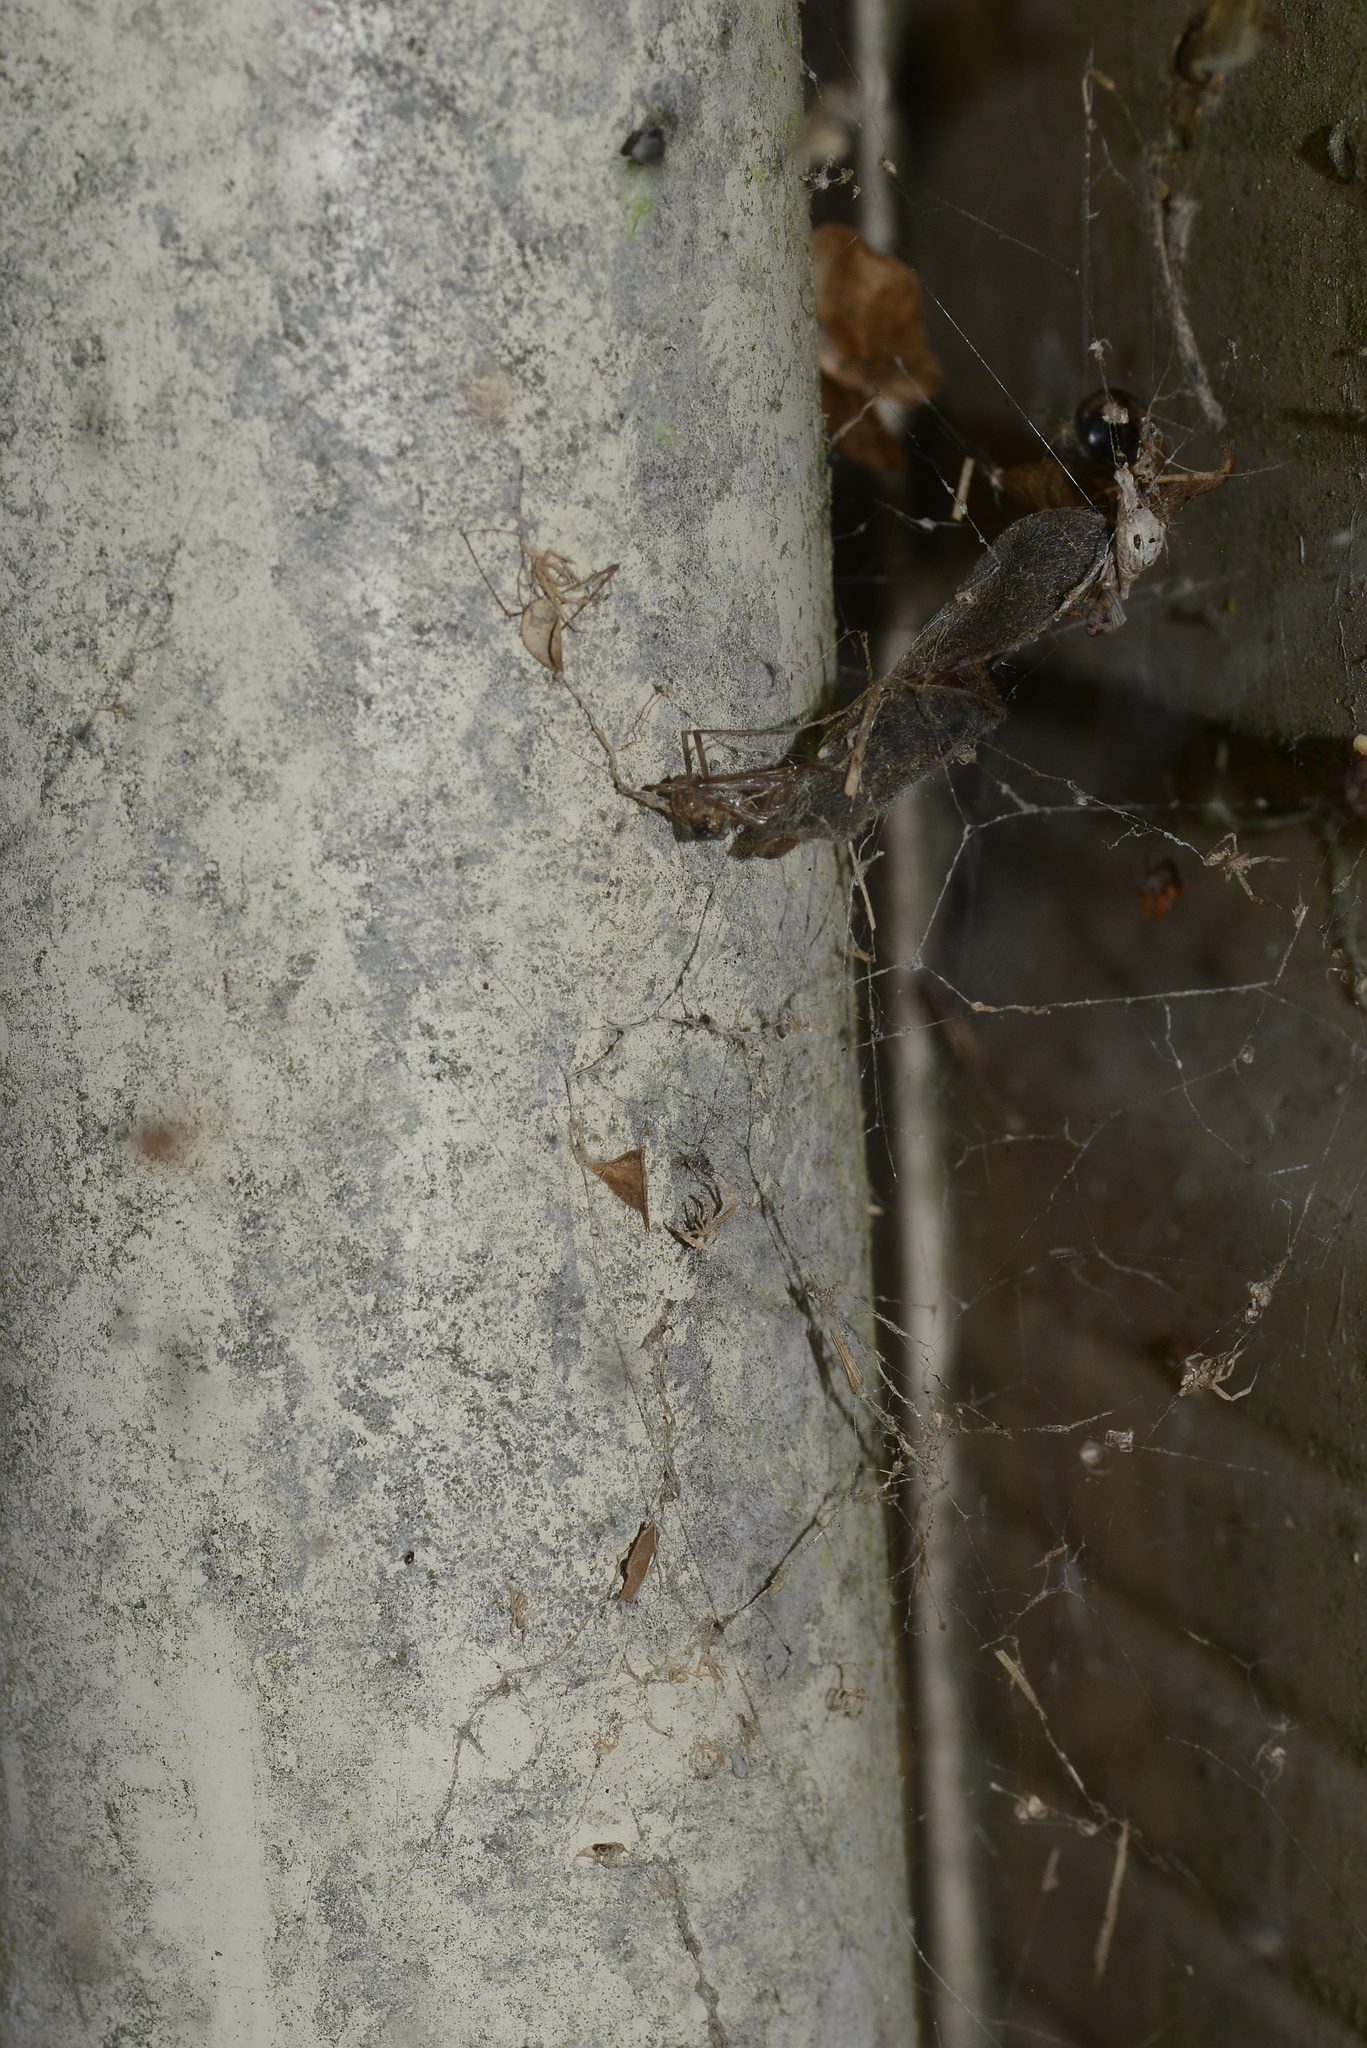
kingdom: Animalia
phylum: Arthropoda
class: Arachnida
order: Araneae
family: Uloboridae
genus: Philoponella
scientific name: Philoponella congregabilis
